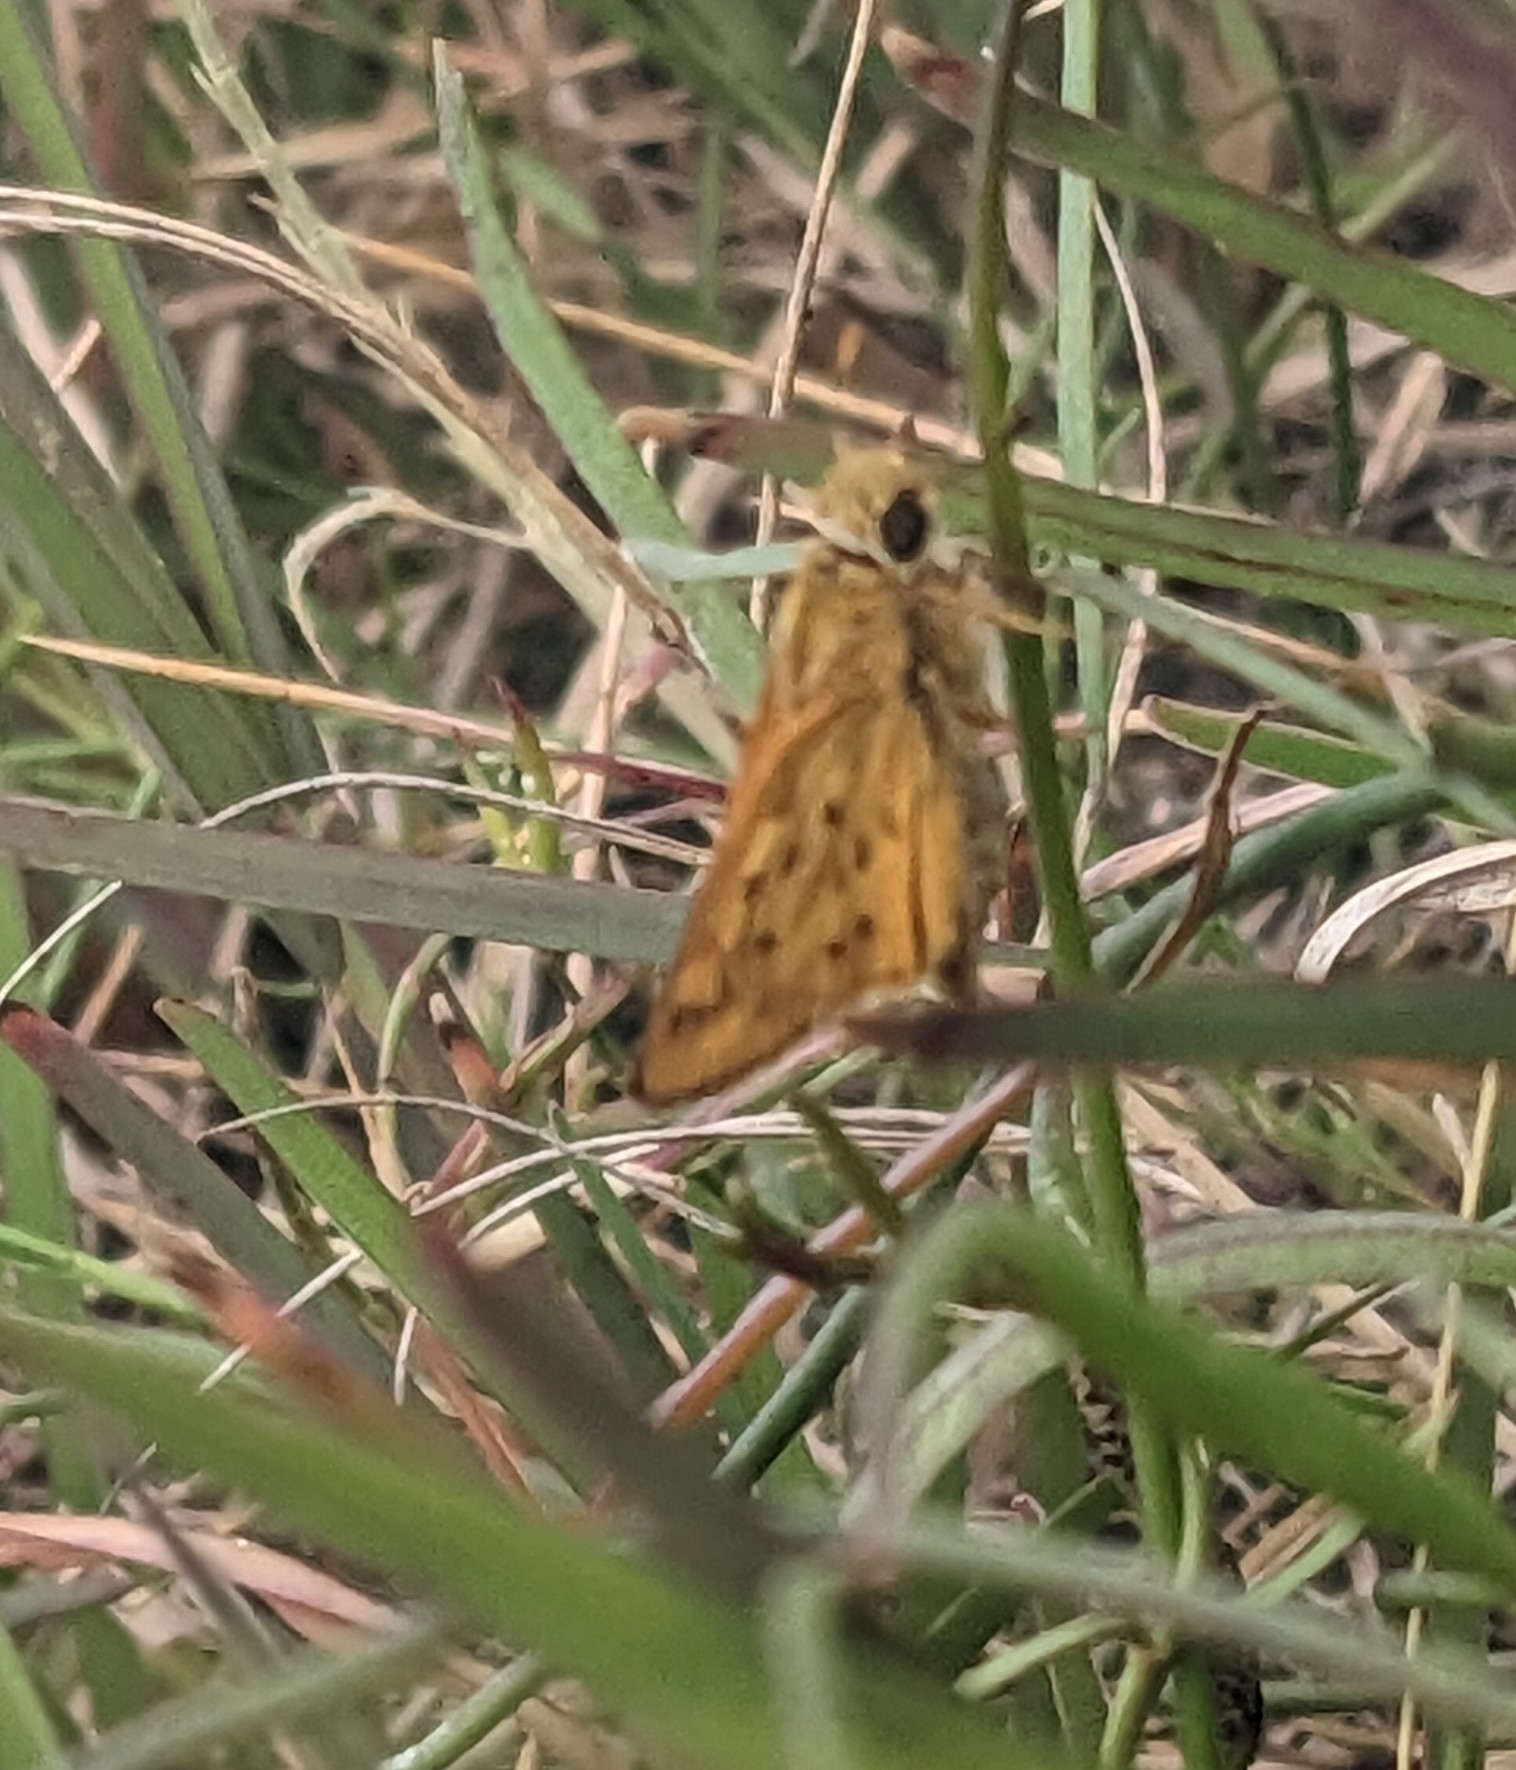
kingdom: Animalia
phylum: Arthropoda
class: Insecta
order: Lepidoptera
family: Hesperiidae
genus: Hylephila
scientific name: Hylephila phyleus
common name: Fiery skipper
